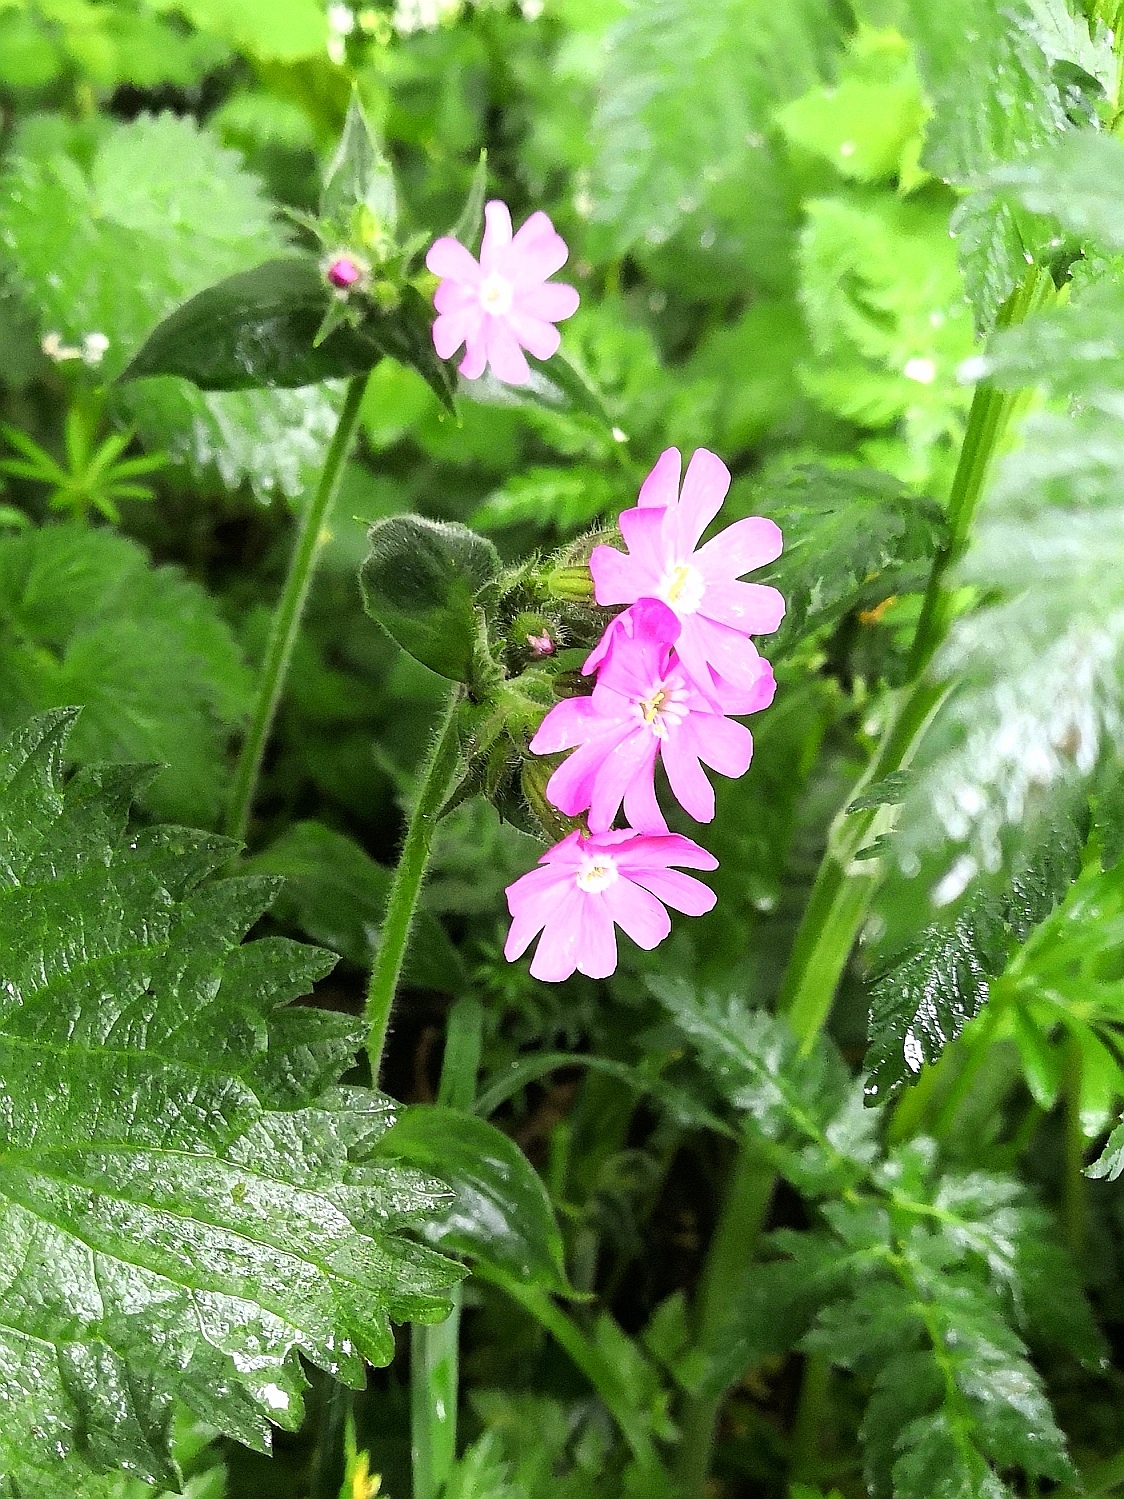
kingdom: Plantae
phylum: Tracheophyta
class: Magnoliopsida
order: Caryophyllales
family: Caryophyllaceae
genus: Silene
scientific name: Silene dioica
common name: Red campion
